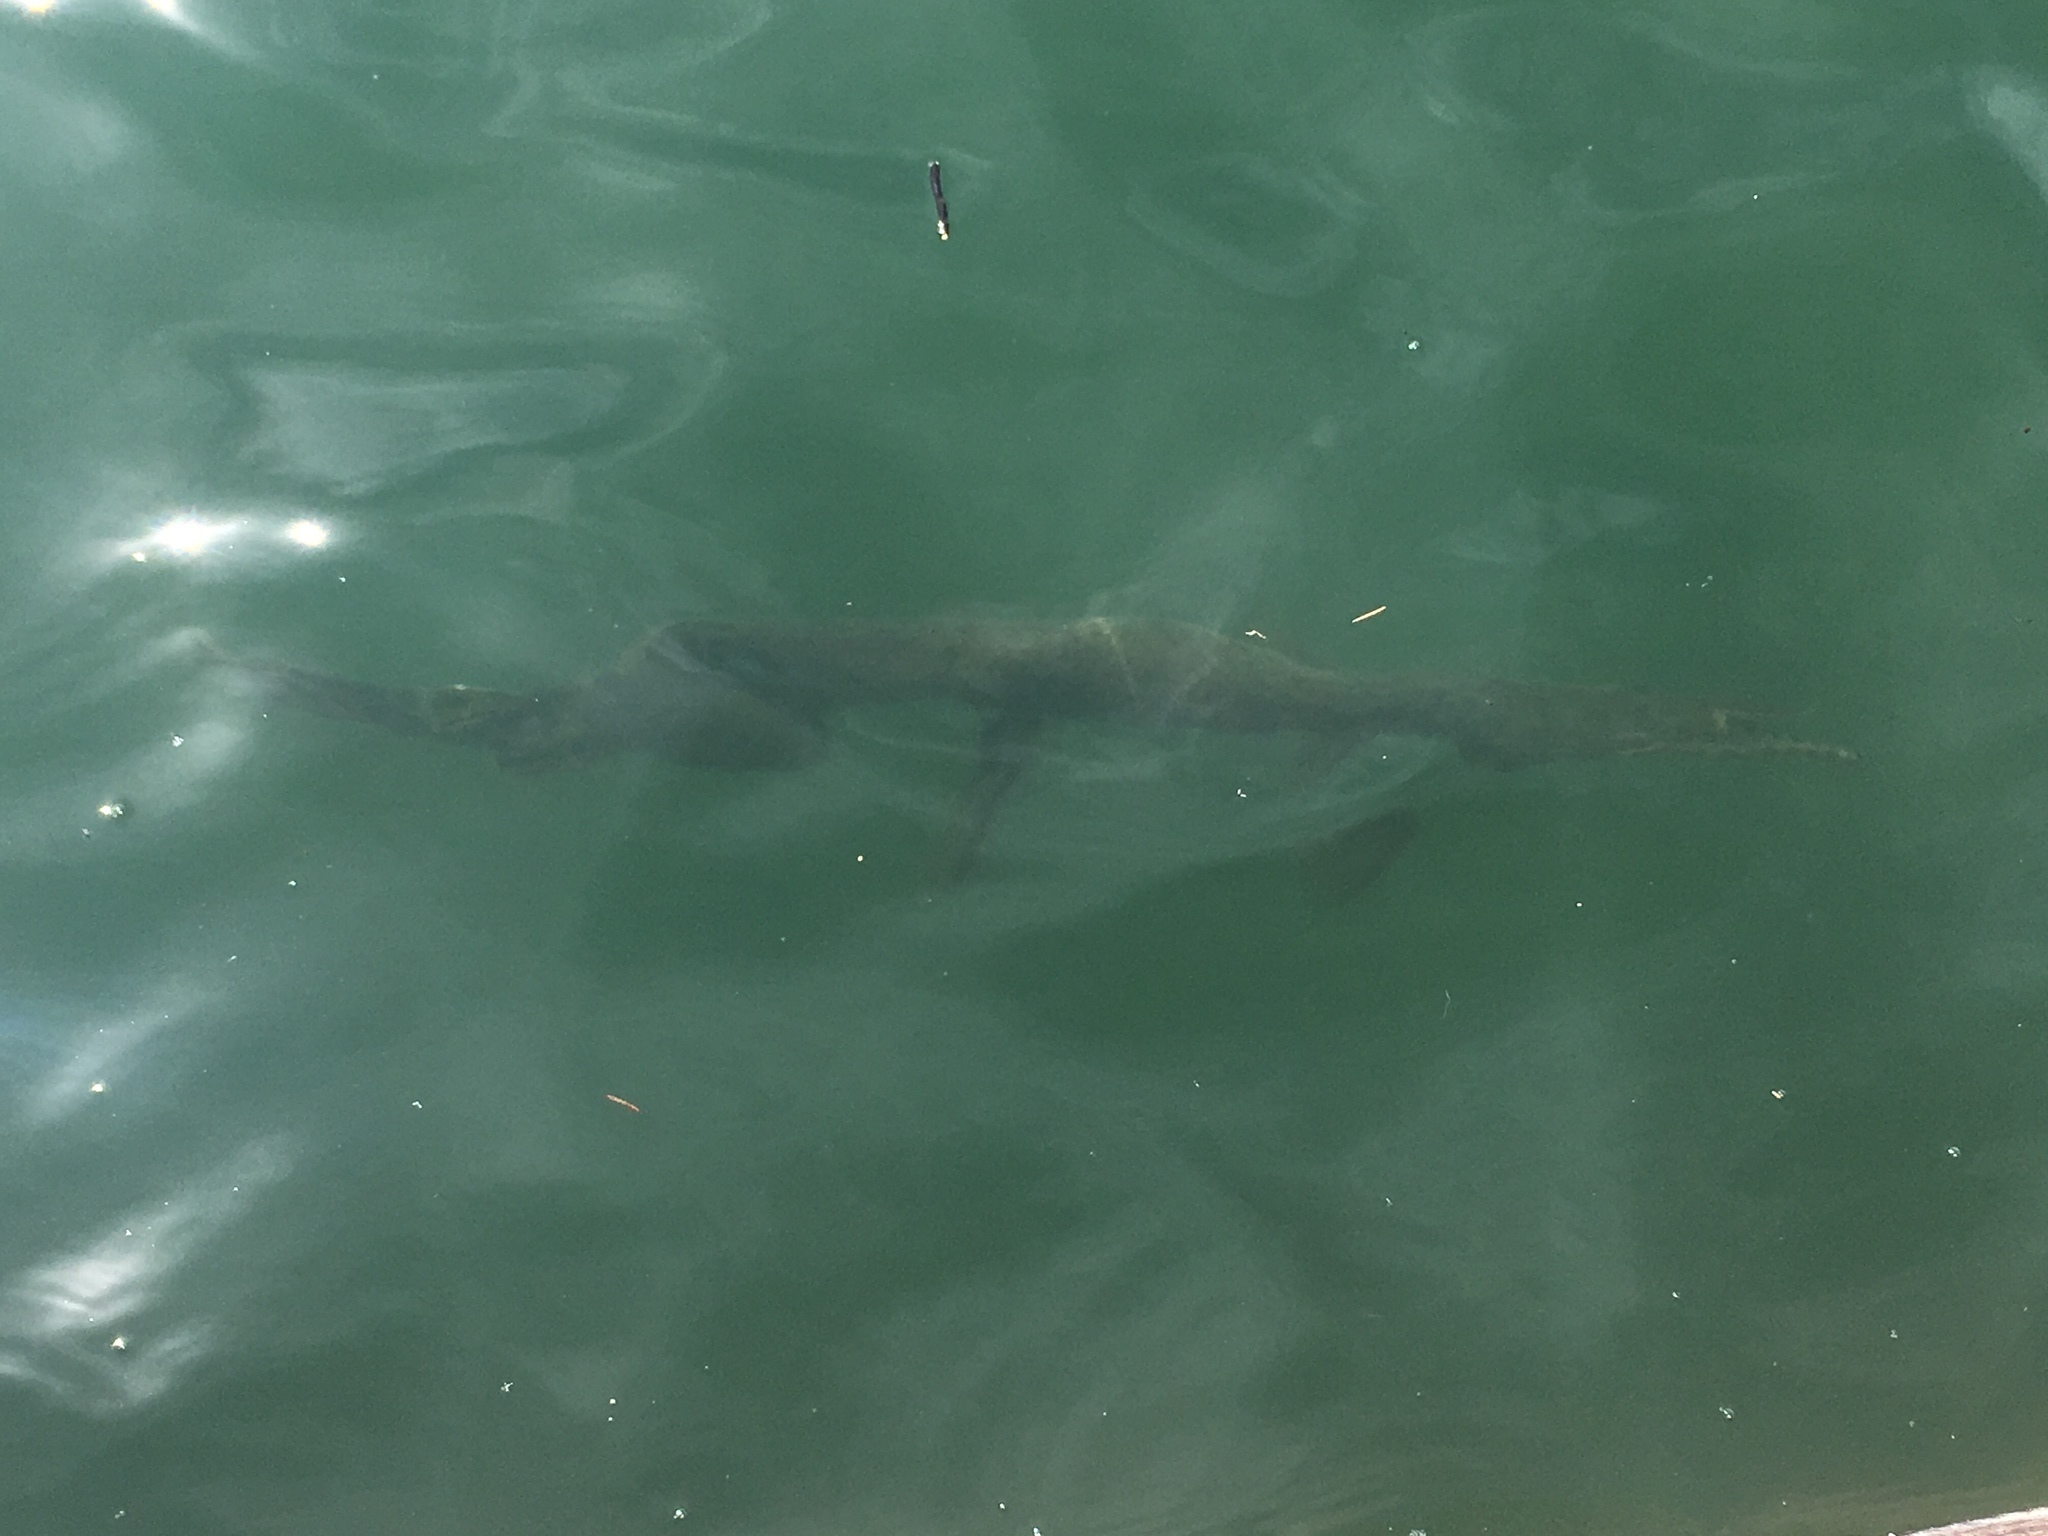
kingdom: Animalia
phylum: Chordata
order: Lepisosteiformes
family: Lepisosteidae
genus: Lepisosteus
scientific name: Lepisosteus osseus
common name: Longnose gar
